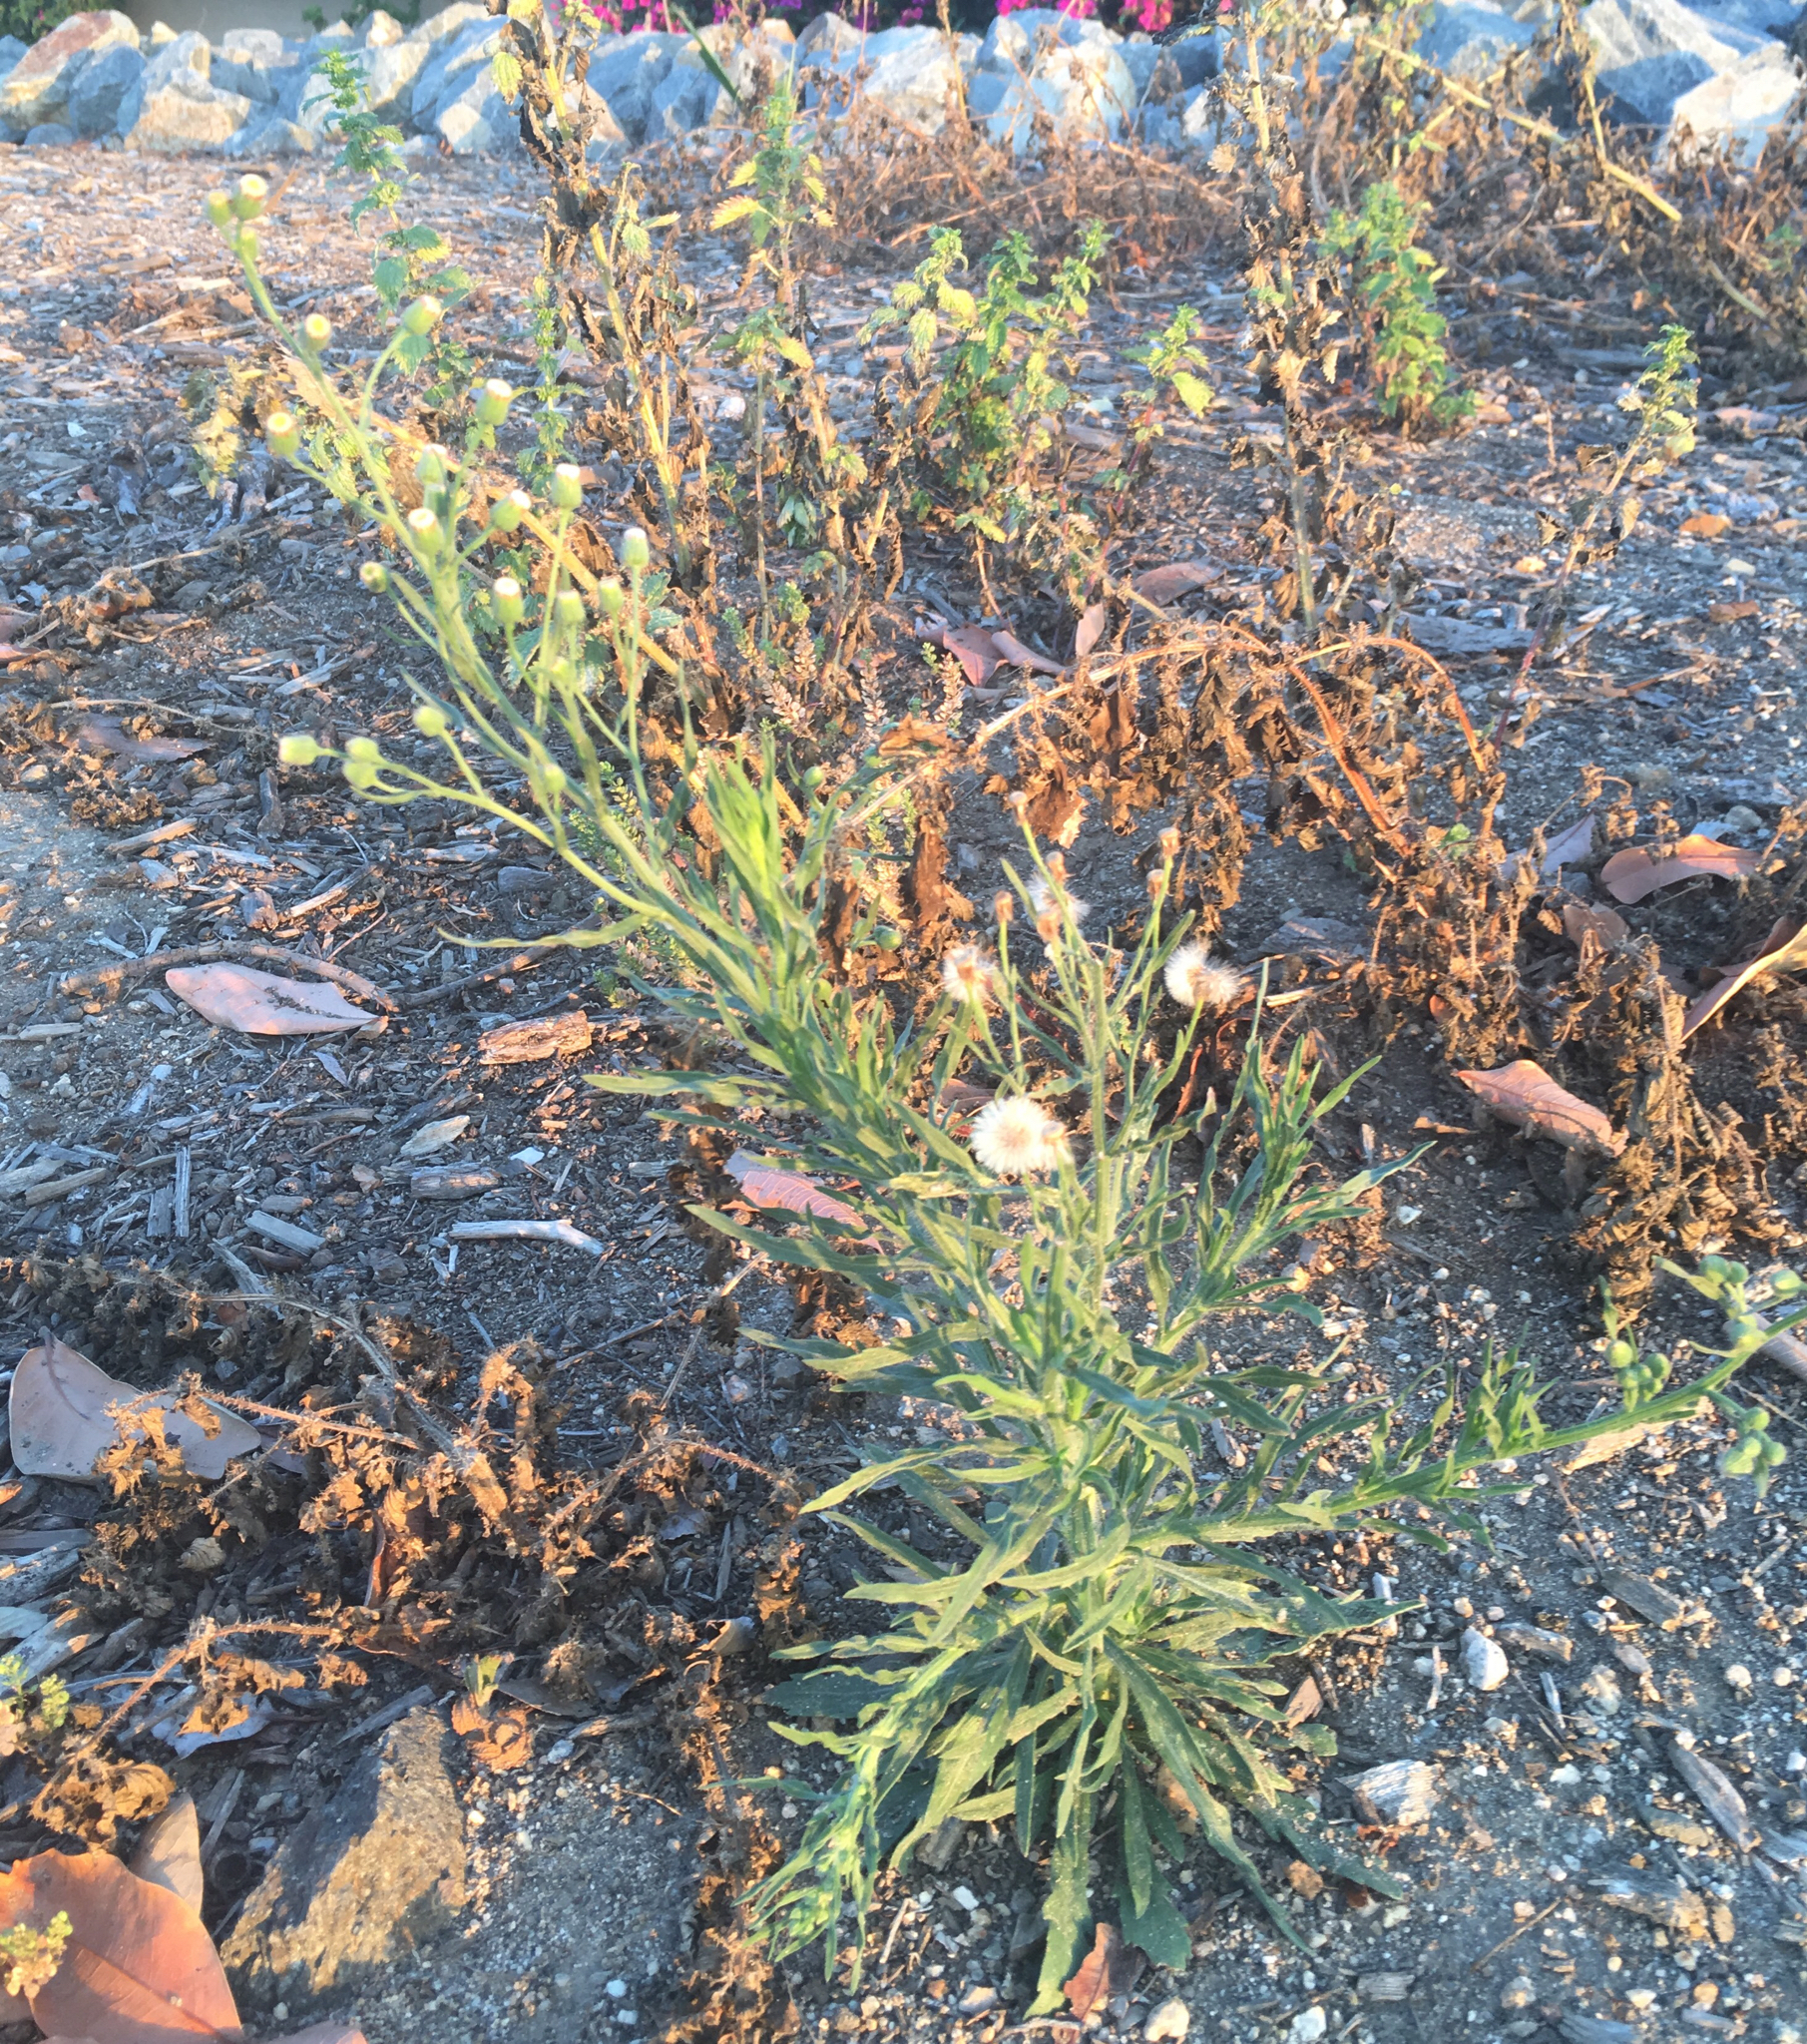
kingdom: Plantae
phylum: Tracheophyta
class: Magnoliopsida
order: Asterales
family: Asteraceae
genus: Erigeron
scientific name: Erigeron bonariensis
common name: Argentine fleabane
